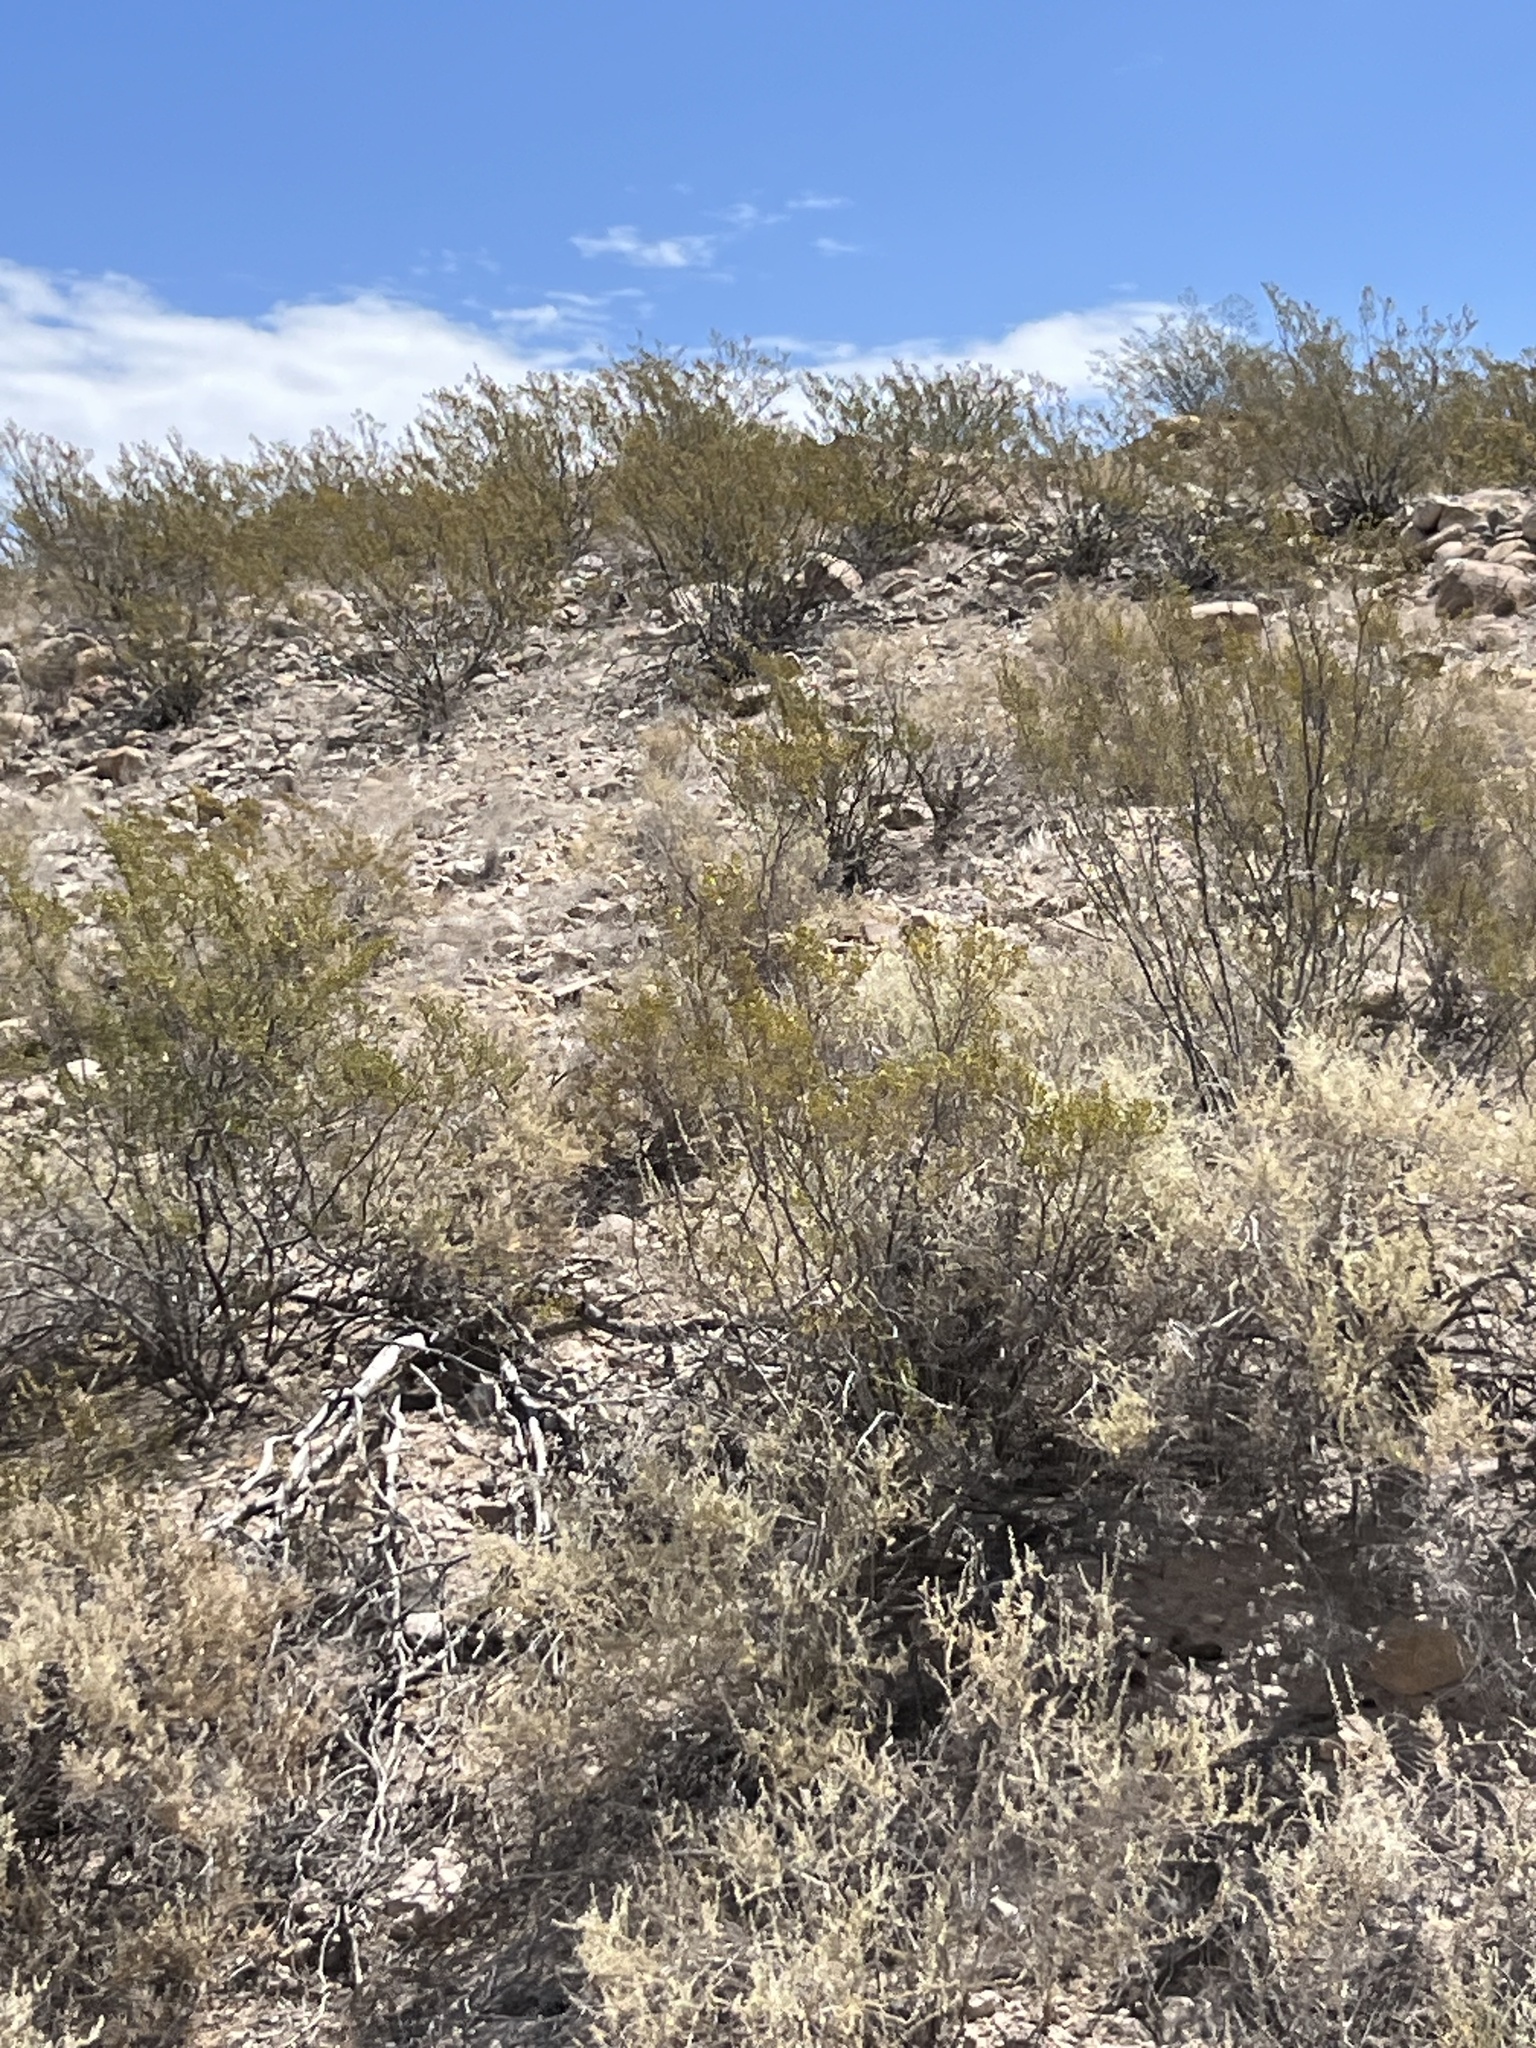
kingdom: Plantae
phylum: Tracheophyta
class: Magnoliopsida
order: Zygophyllales
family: Zygophyllaceae
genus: Larrea
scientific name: Larrea tridentata
